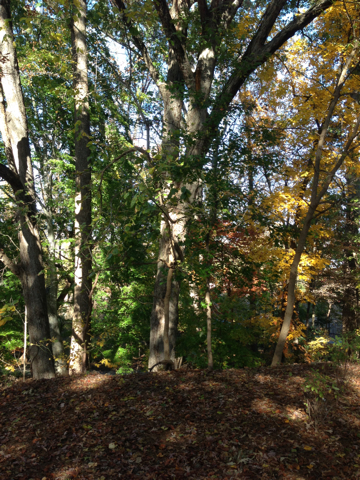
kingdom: Plantae
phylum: Tracheophyta
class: Magnoliopsida
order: Fagales
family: Fagaceae
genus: Quercus
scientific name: Quercus alba
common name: White oak
